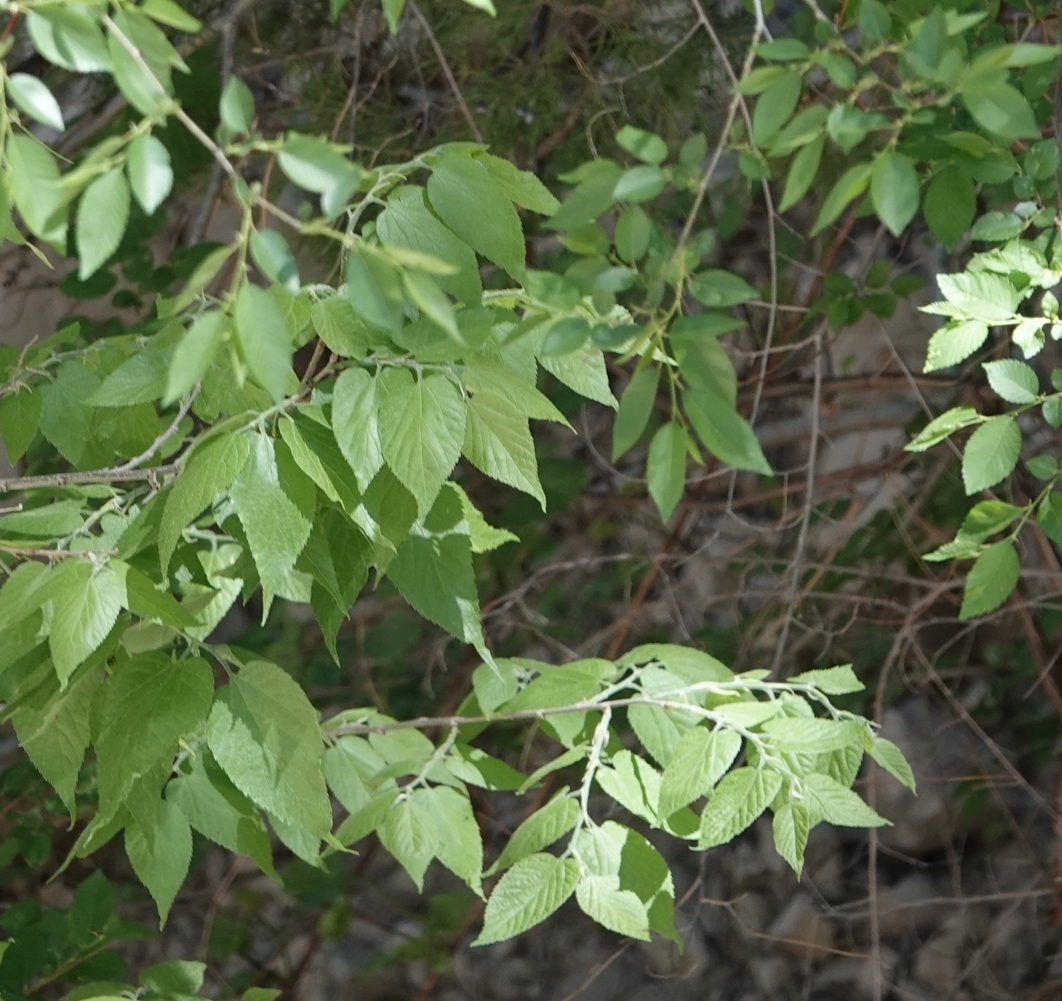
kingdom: Plantae
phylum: Tracheophyta
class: Magnoliopsida
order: Rosales
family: Cannabaceae
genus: Celtis
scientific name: Celtis occidentalis
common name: Common hackberry
